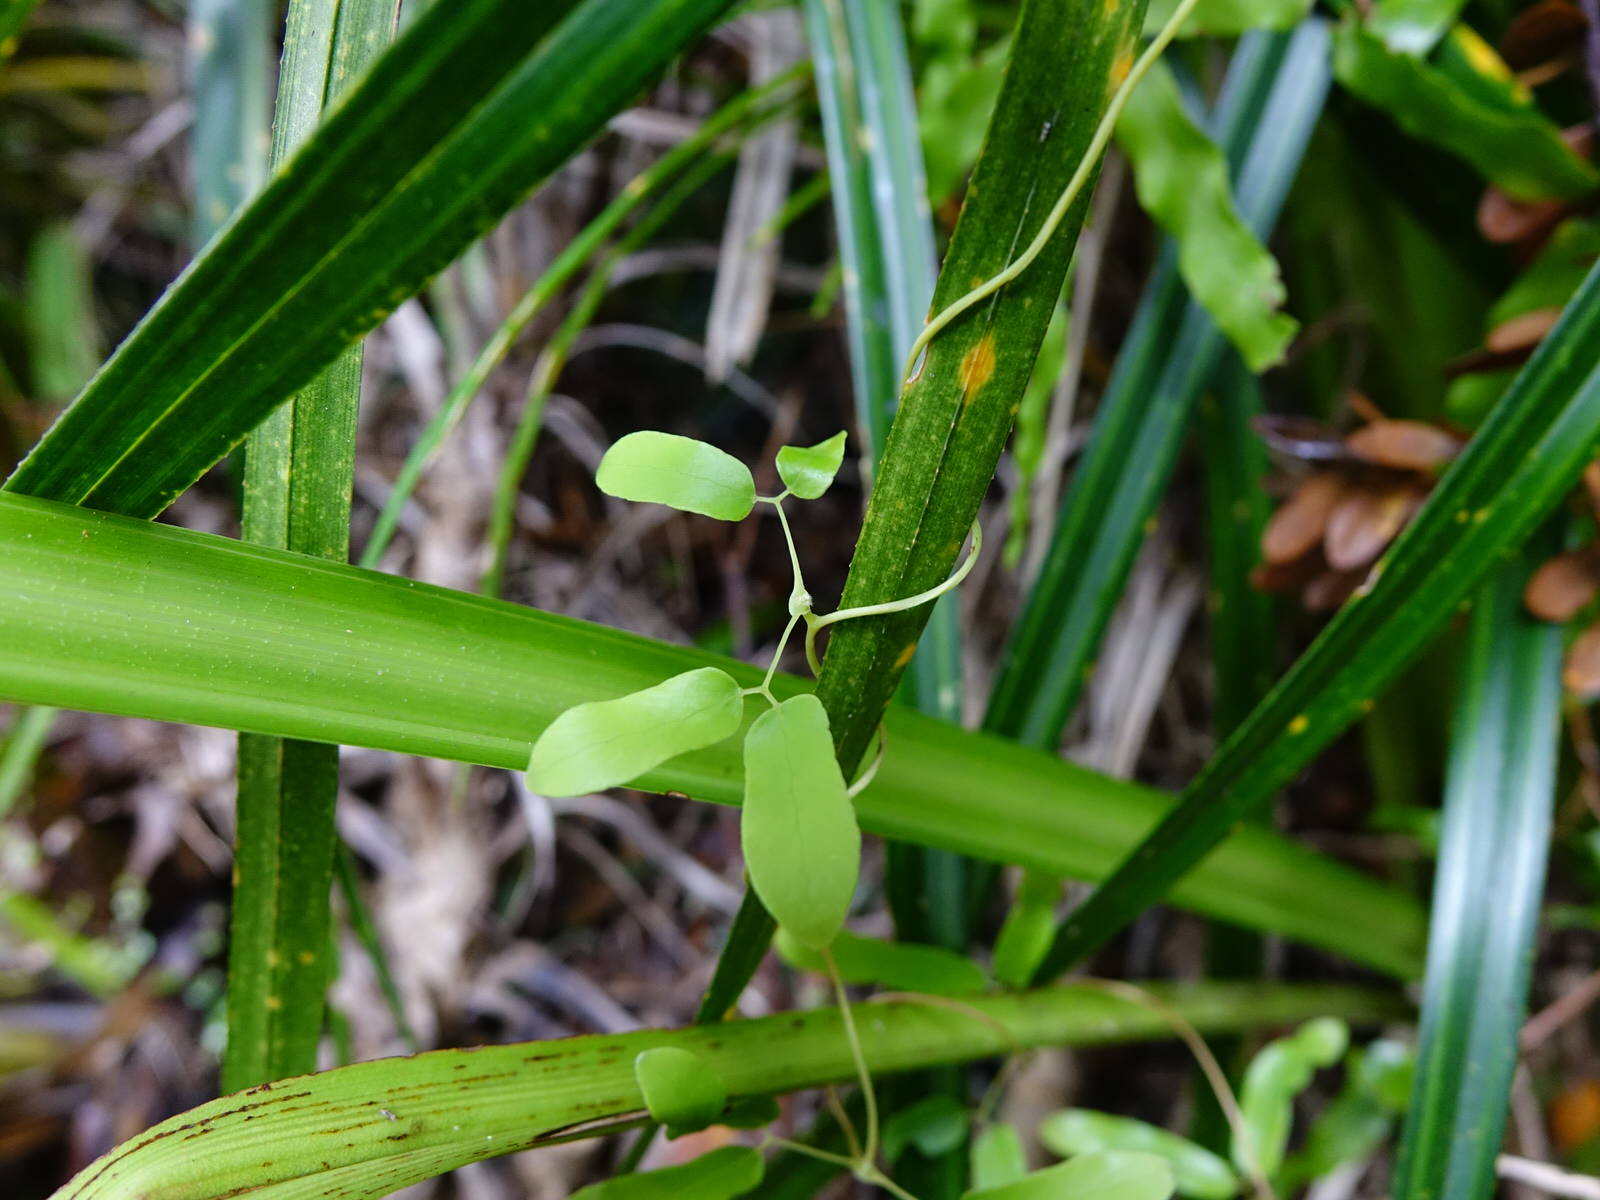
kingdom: Plantae
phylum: Tracheophyta
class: Polypodiopsida
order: Schizaeales
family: Lygodiaceae
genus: Lygodium
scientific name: Lygodium articulatum
